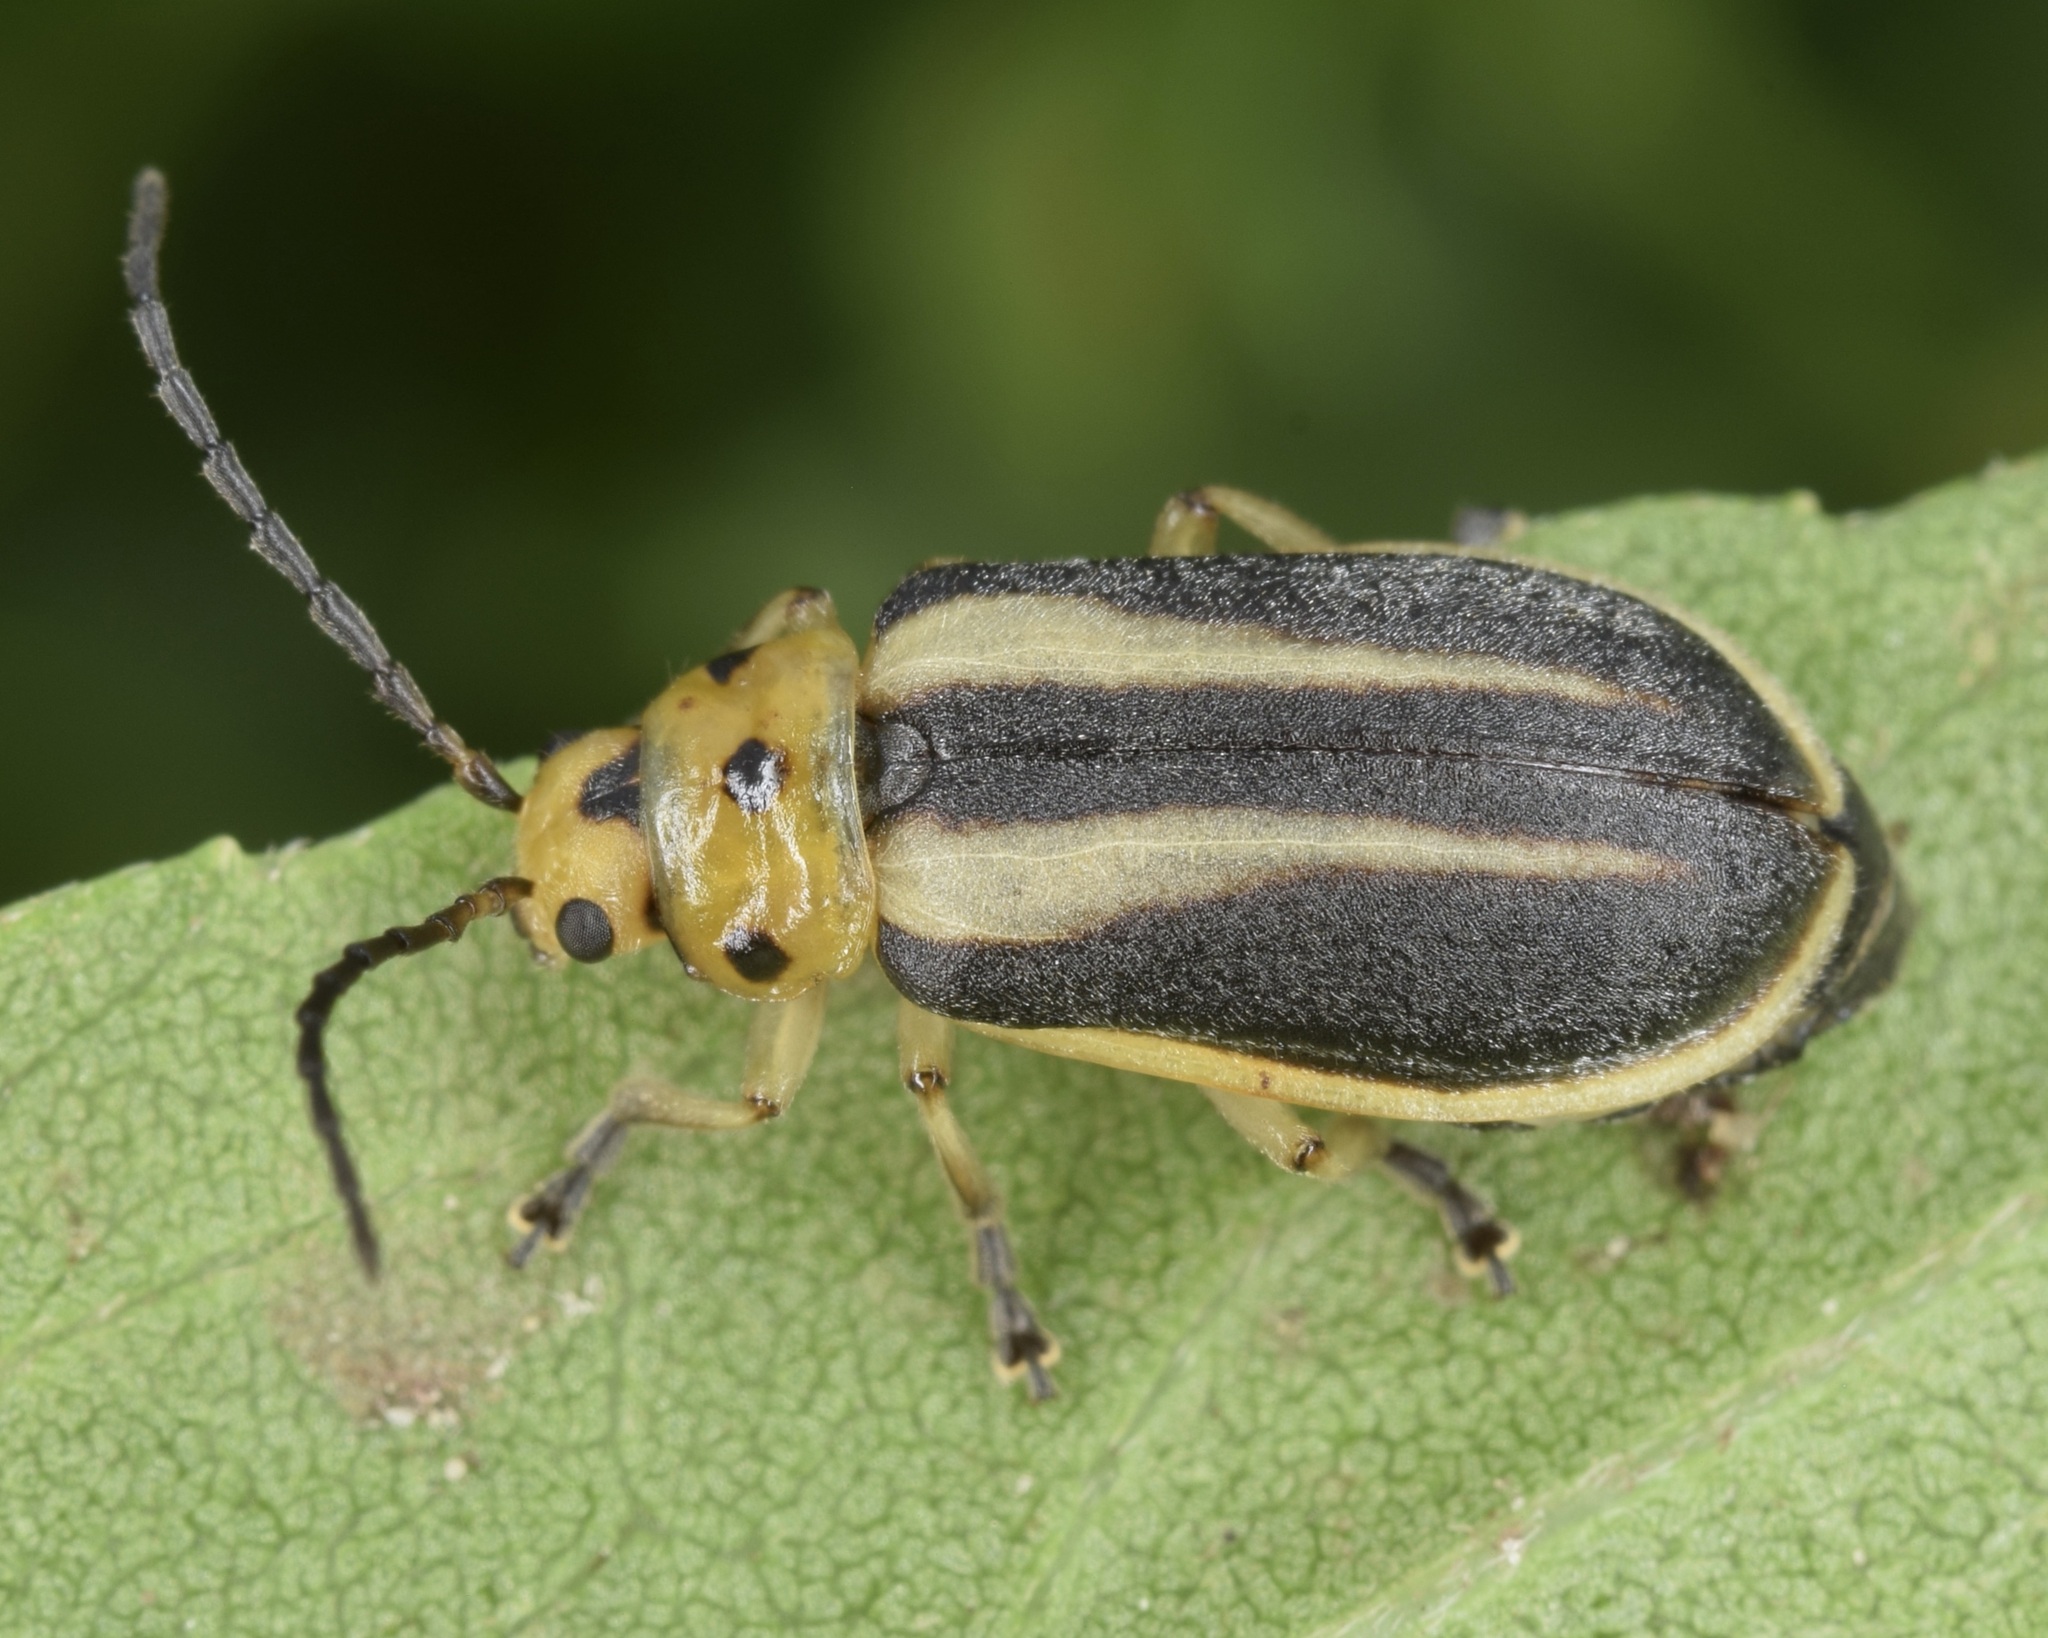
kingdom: Animalia
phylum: Arthropoda
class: Insecta
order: Coleoptera
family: Chrysomelidae
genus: Trirhabda
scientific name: Trirhabda bacharidis
